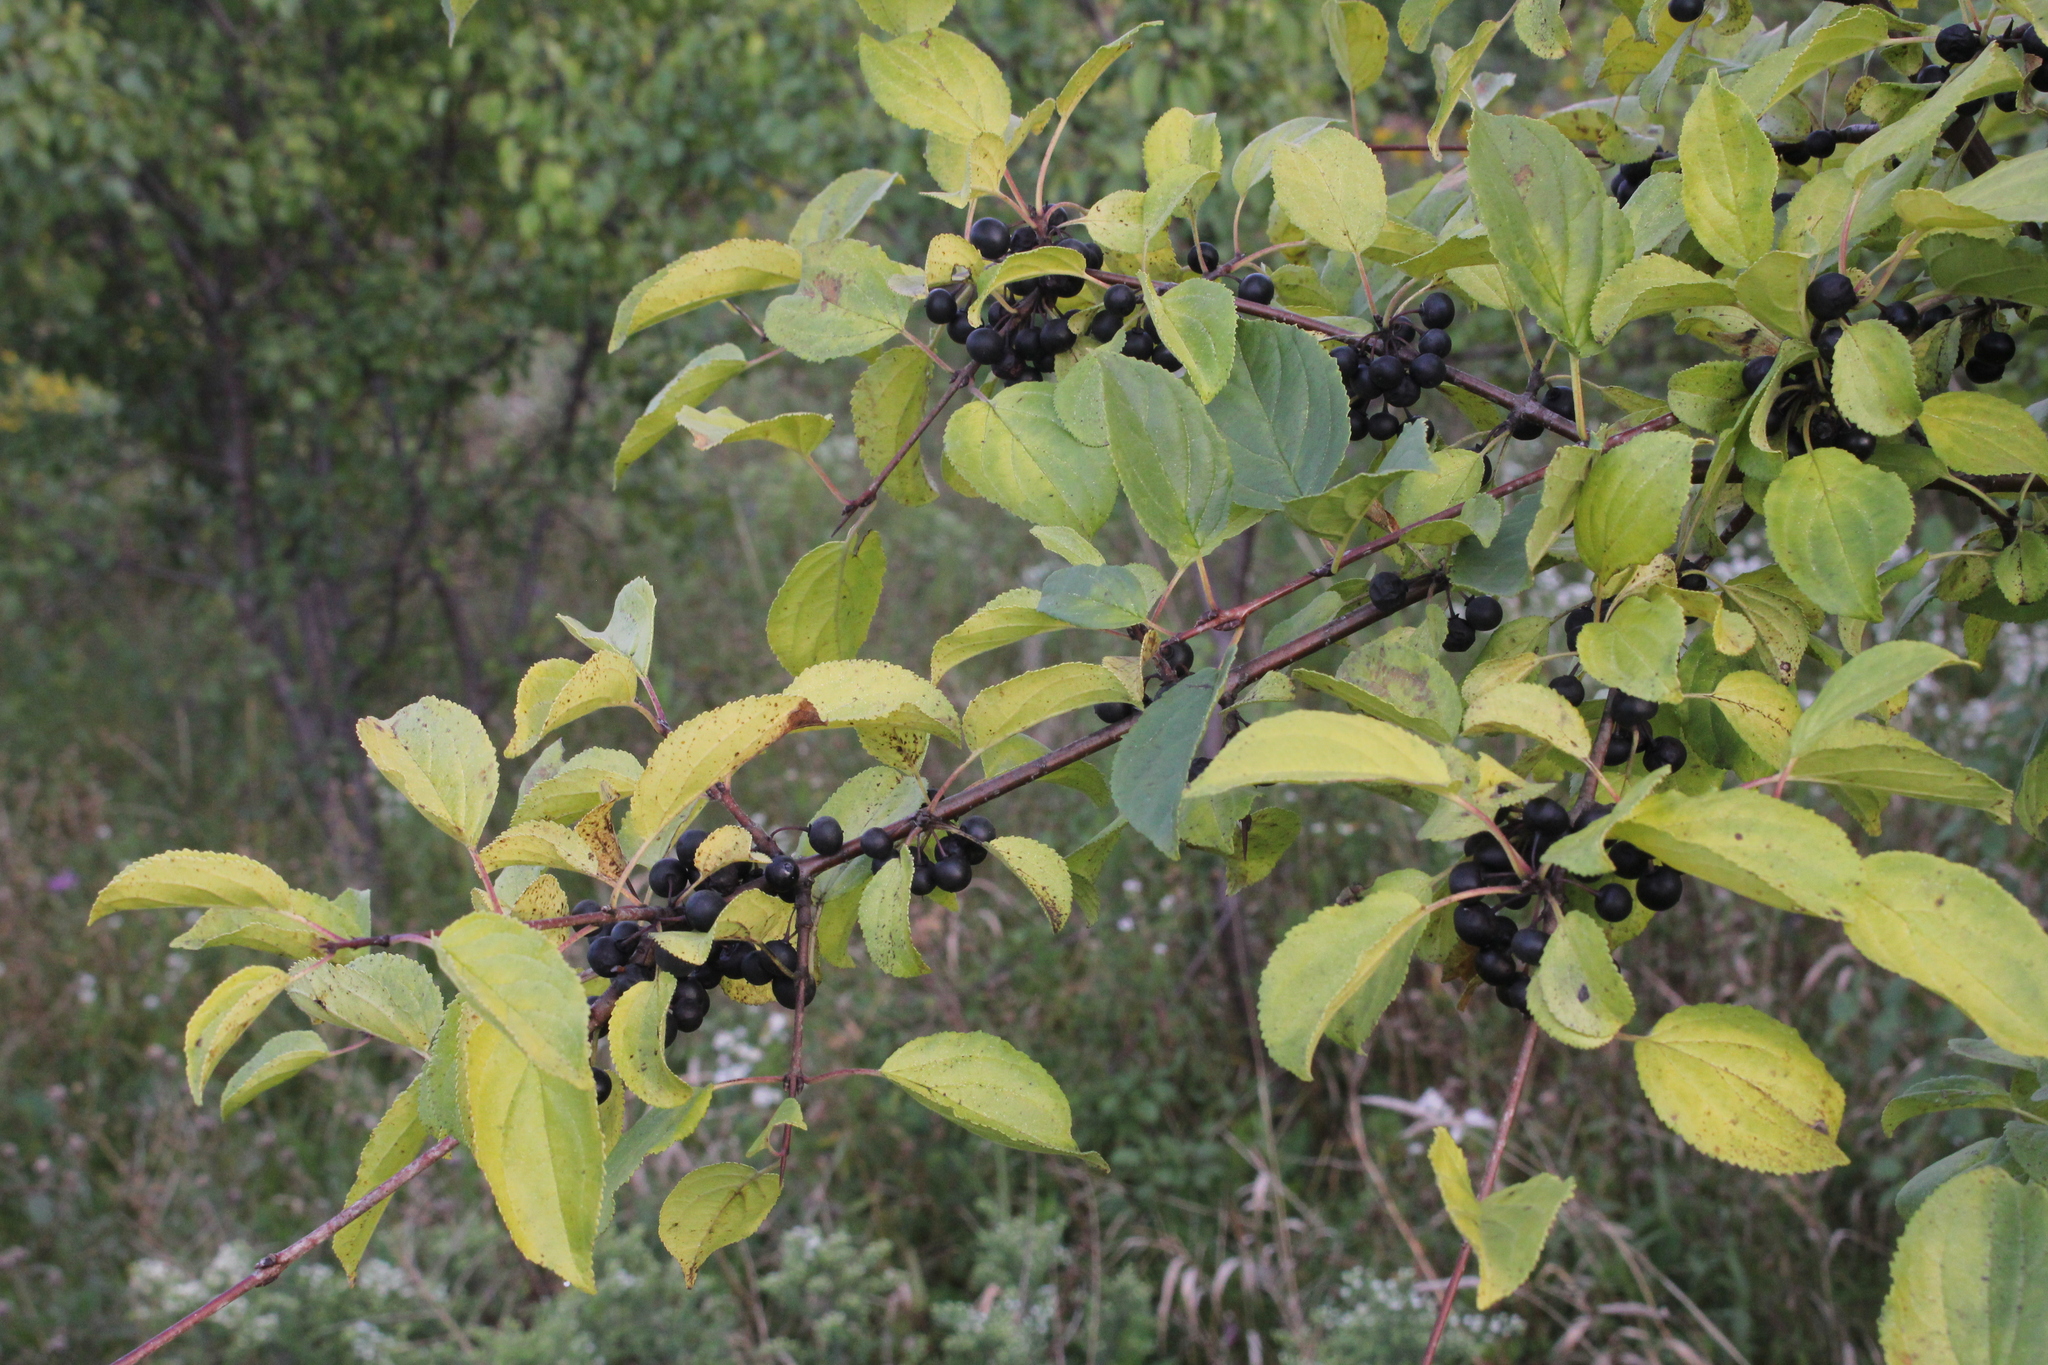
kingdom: Plantae
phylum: Tracheophyta
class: Magnoliopsida
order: Rosales
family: Rhamnaceae
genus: Rhamnus
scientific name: Rhamnus cathartica
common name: Common buckthorn
